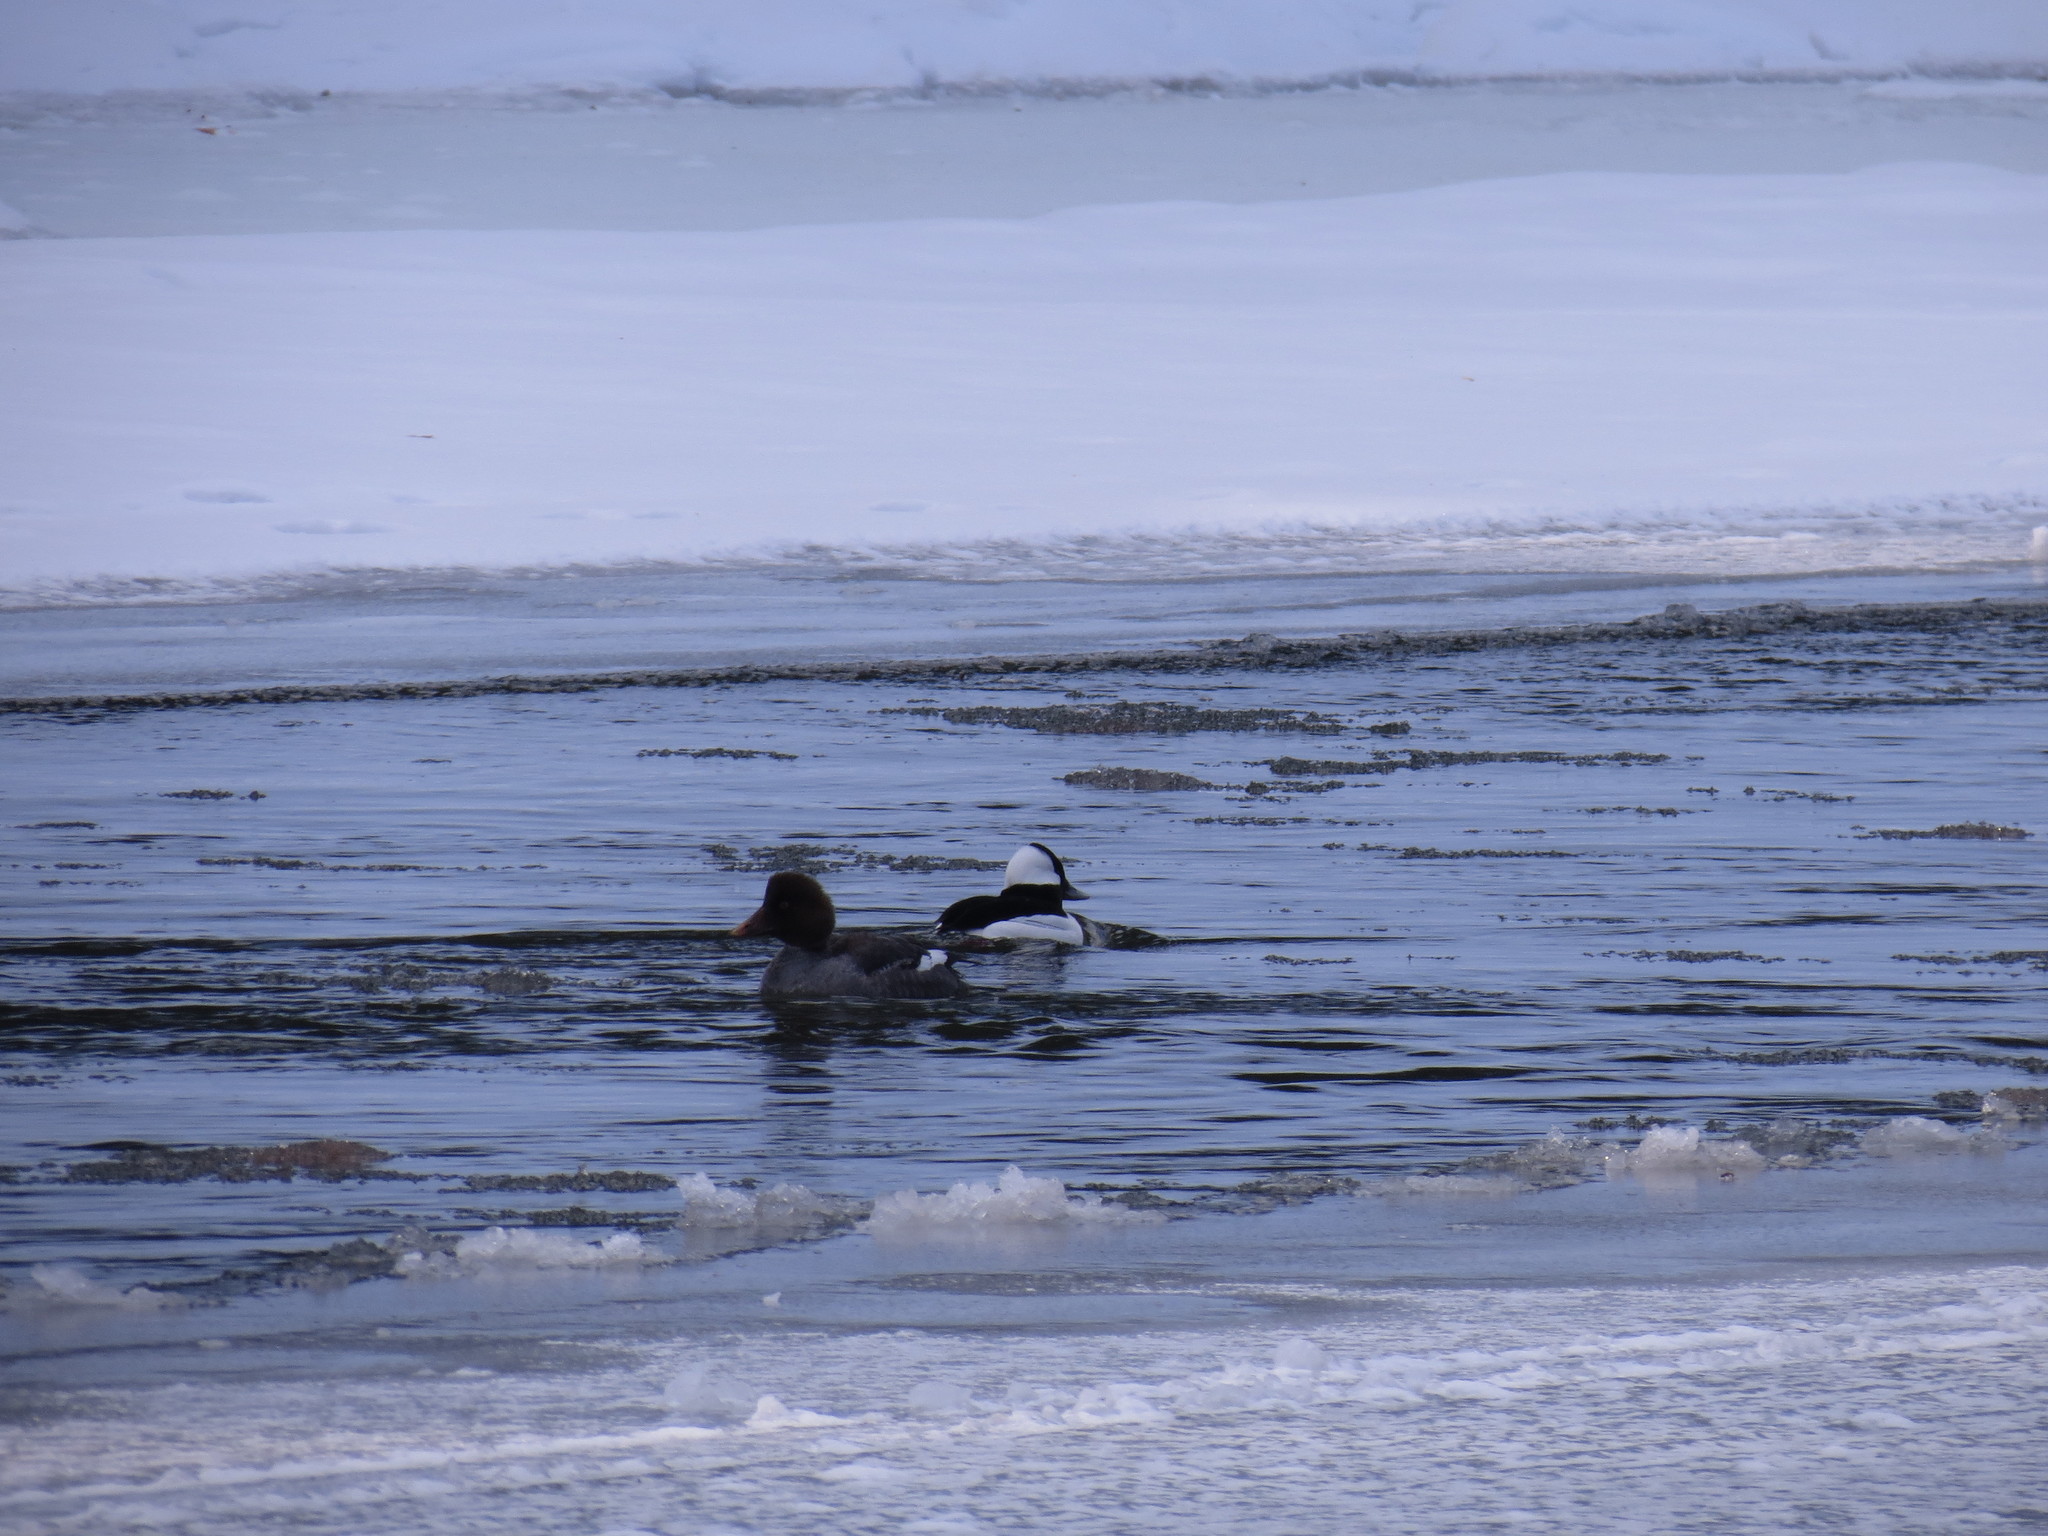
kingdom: Animalia
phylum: Chordata
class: Aves
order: Anseriformes
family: Anatidae
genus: Bucephala
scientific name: Bucephala clangula
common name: Common goldeneye
